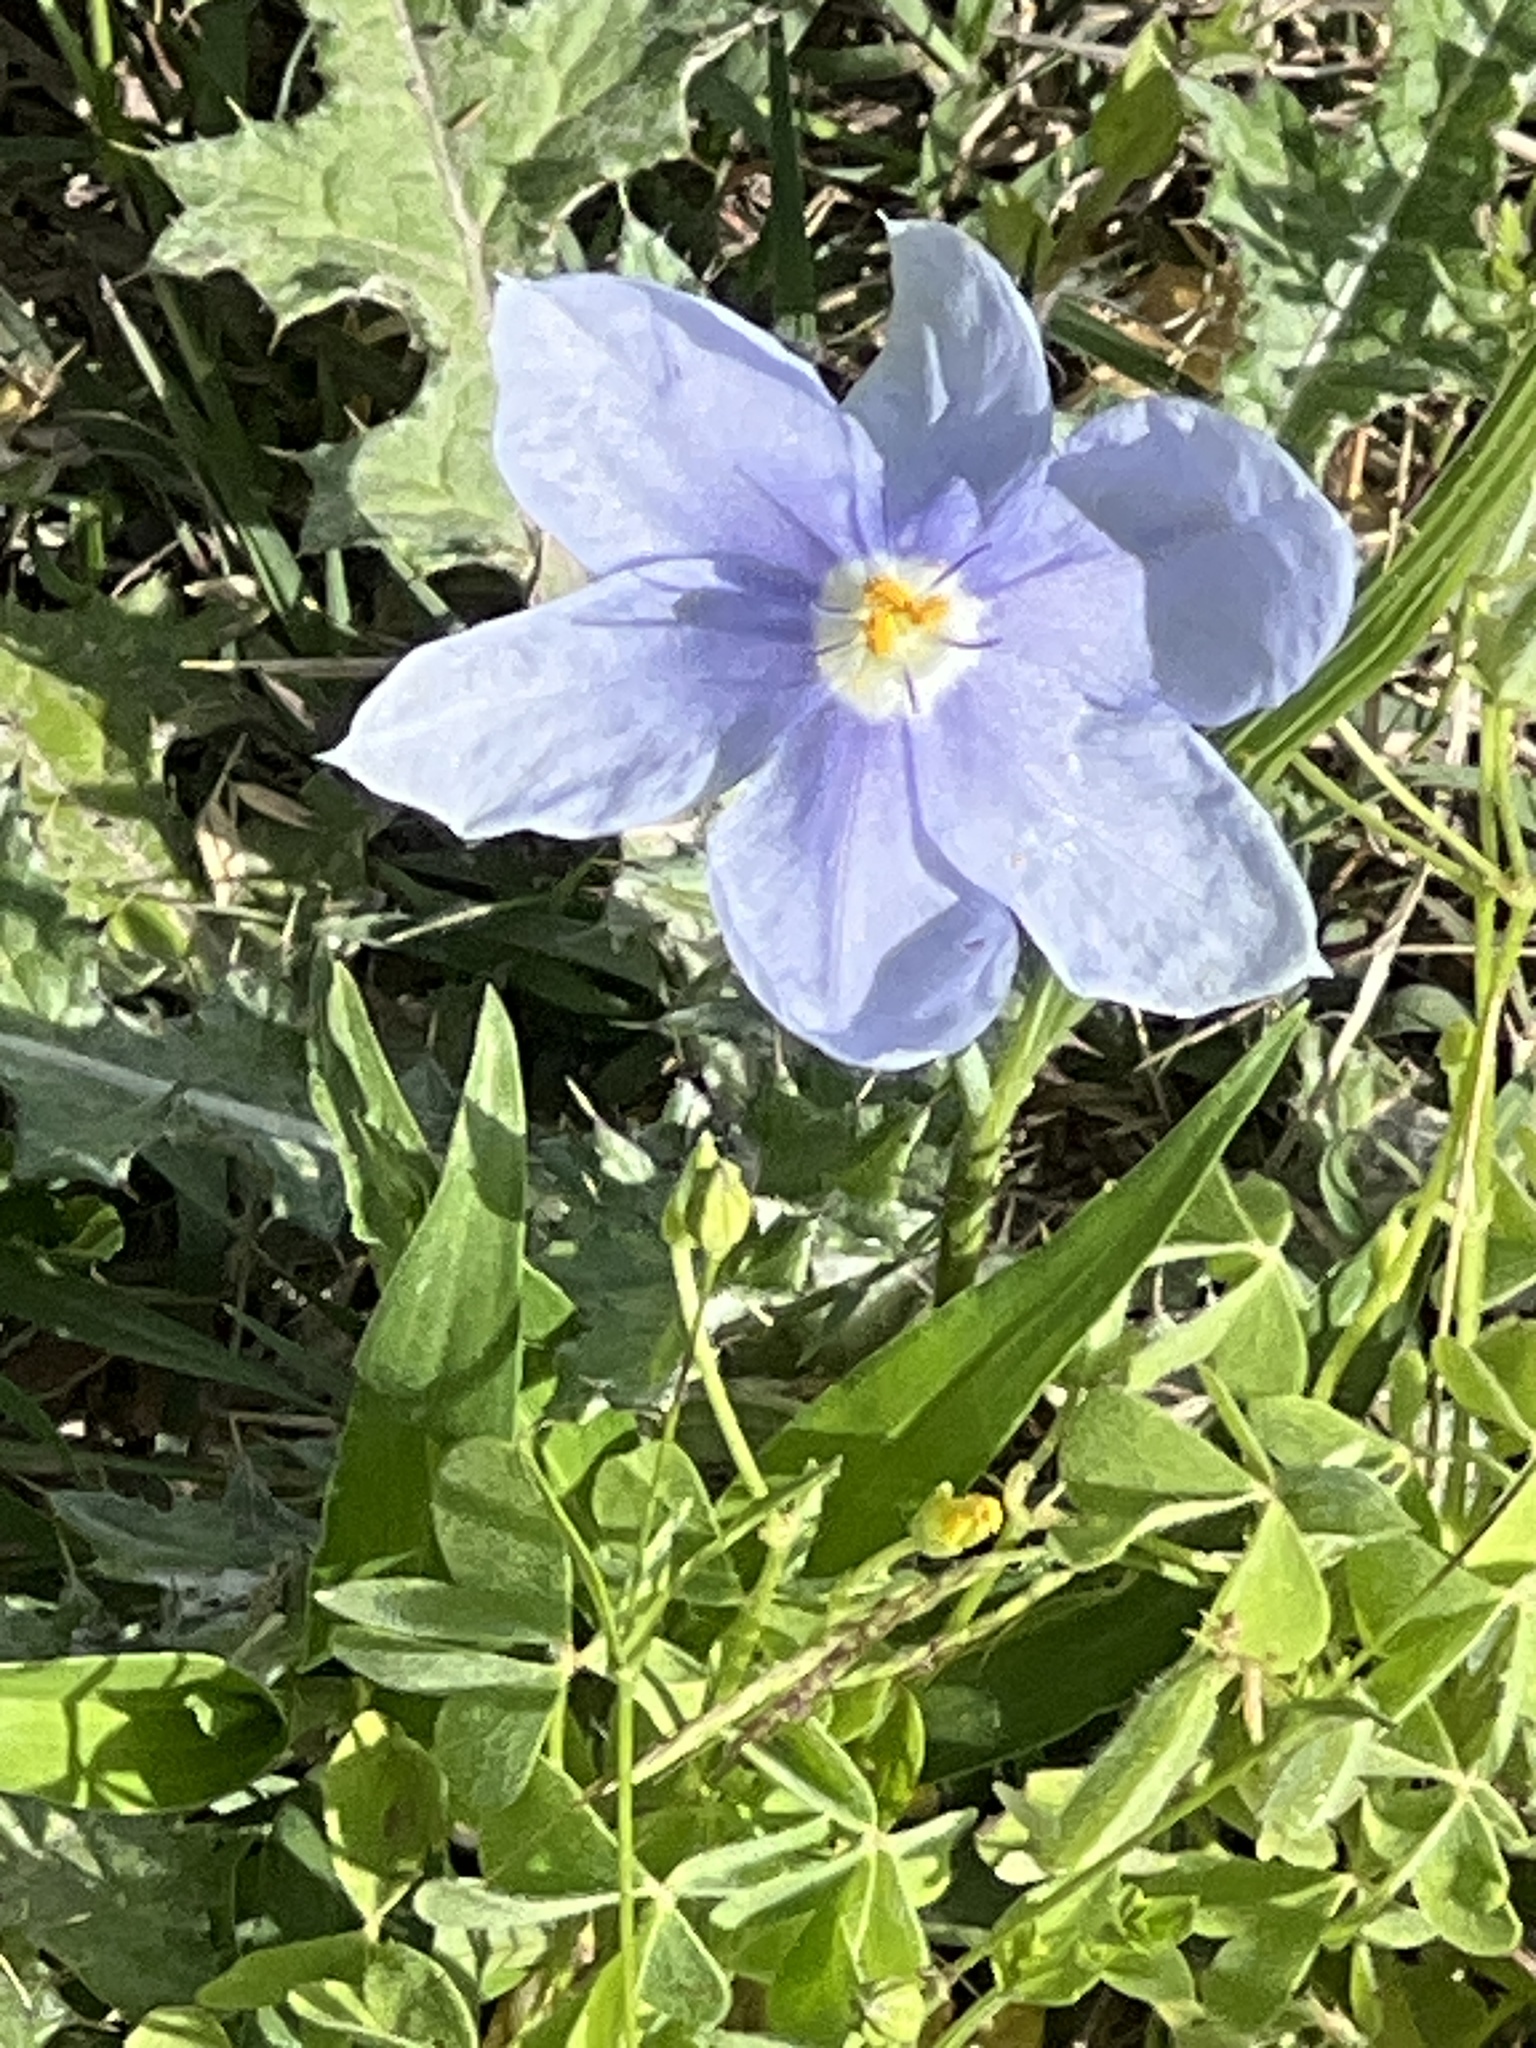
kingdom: Plantae
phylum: Tracheophyta
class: Liliopsida
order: Asparagales
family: Iridaceae
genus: Nemastylis
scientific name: Nemastylis geminiflora
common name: Prairie celestial
